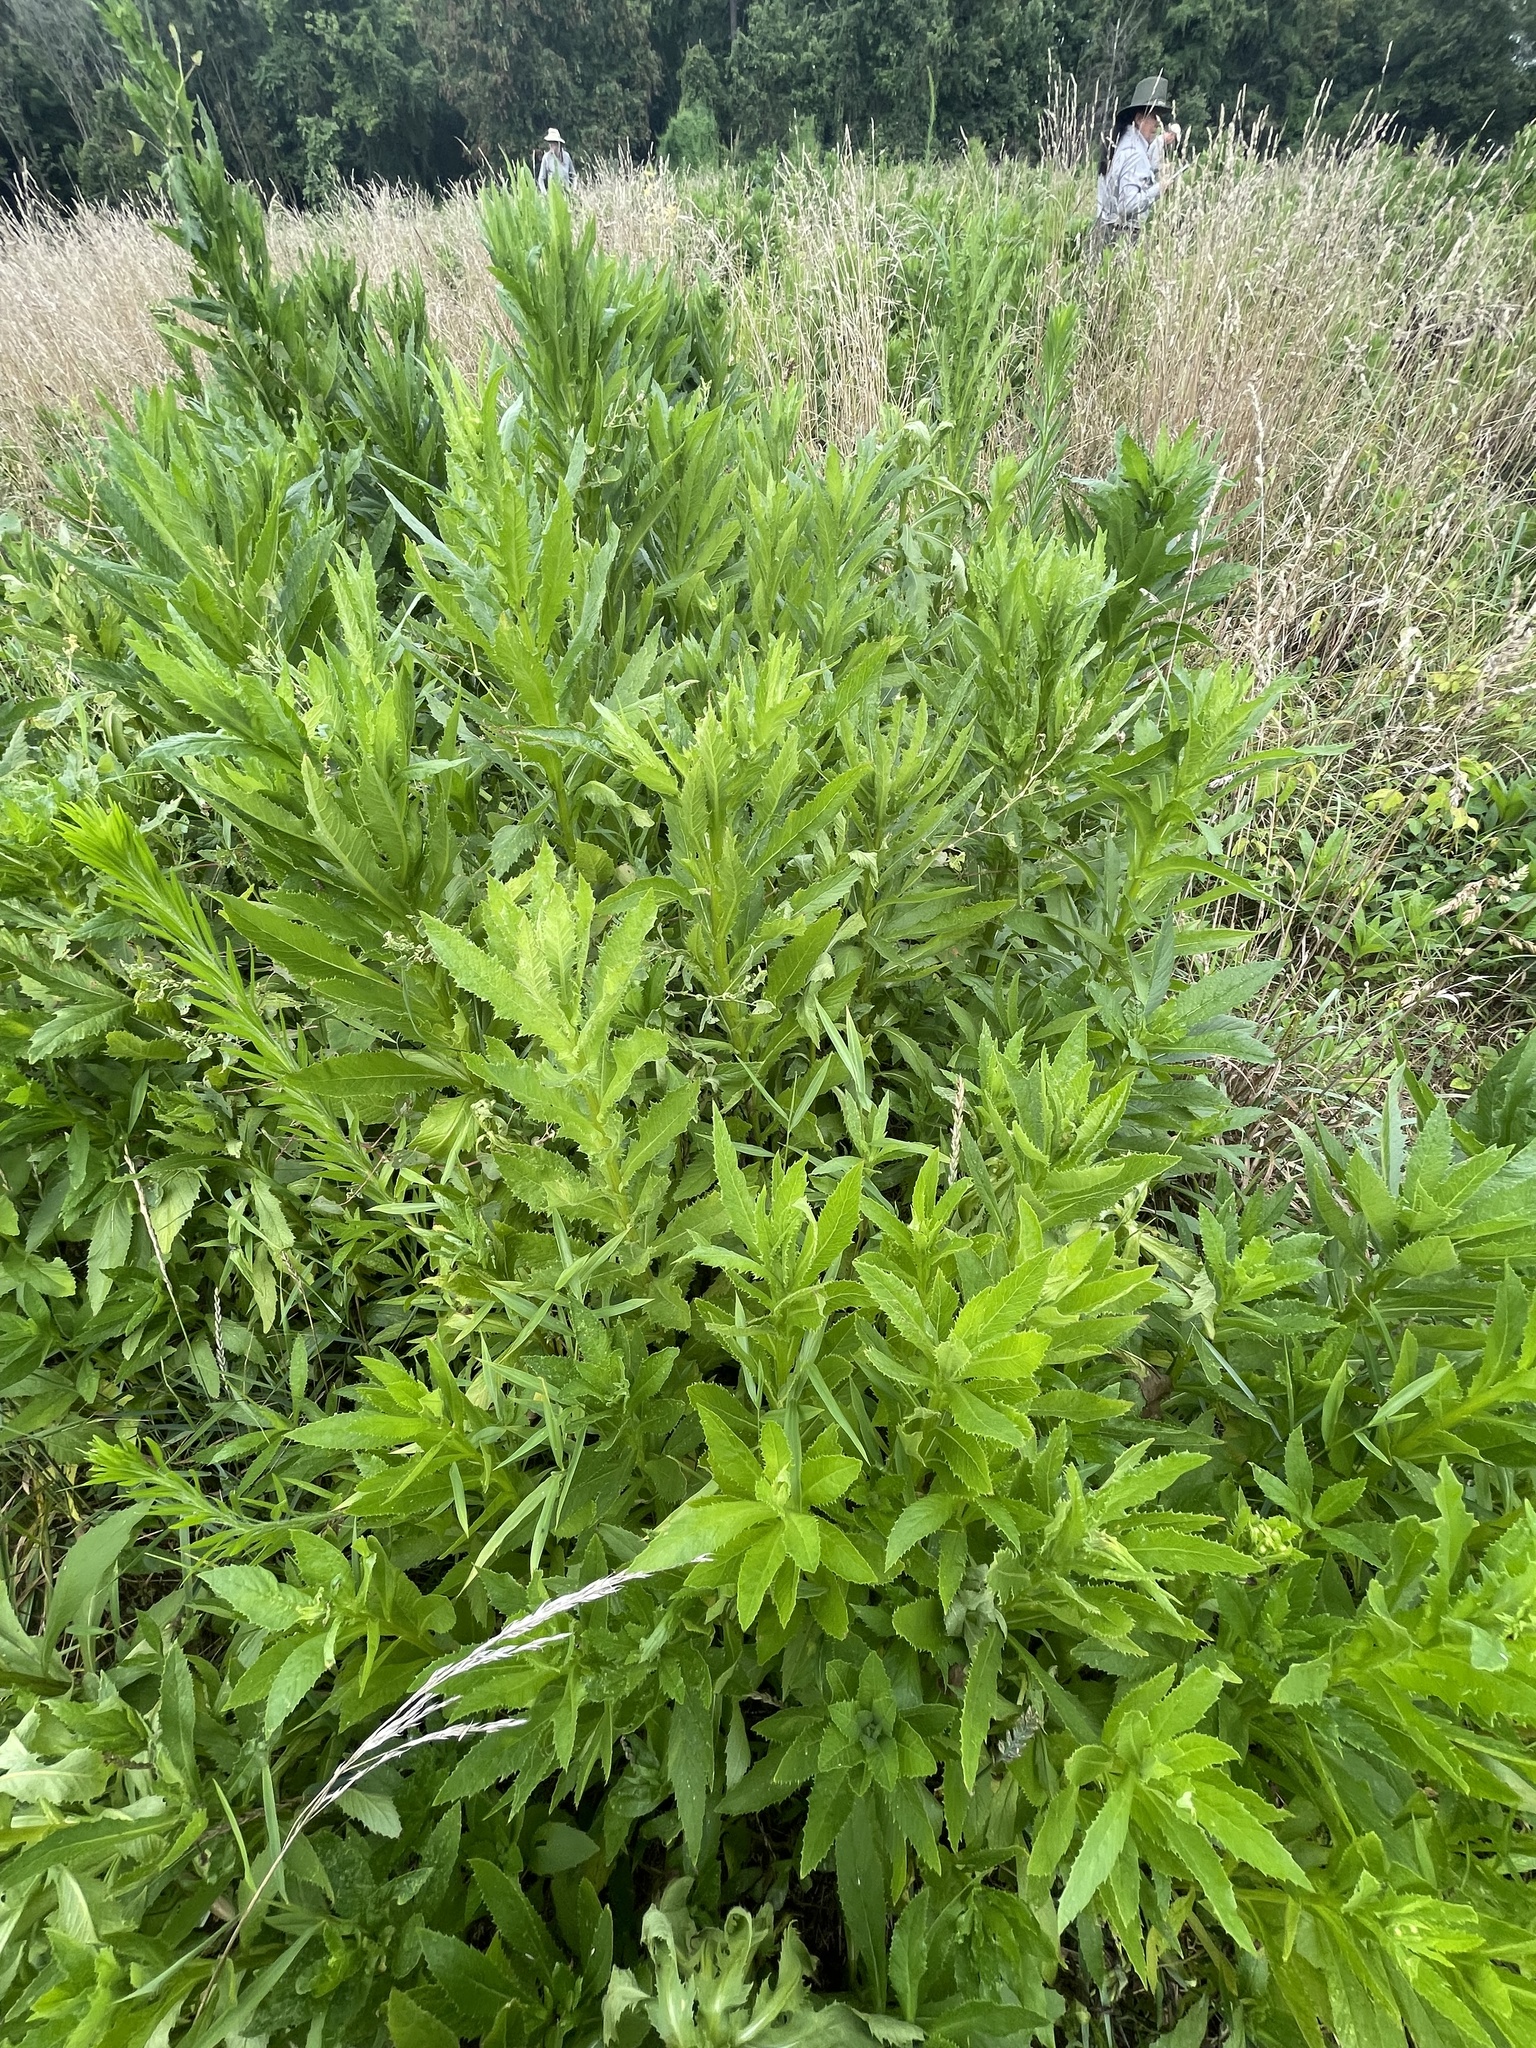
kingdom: Plantae
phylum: Tracheophyta
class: Magnoliopsida
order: Asterales
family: Asteraceae
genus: Erechtites
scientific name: Erechtites hieraciifolius
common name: American burnweed
